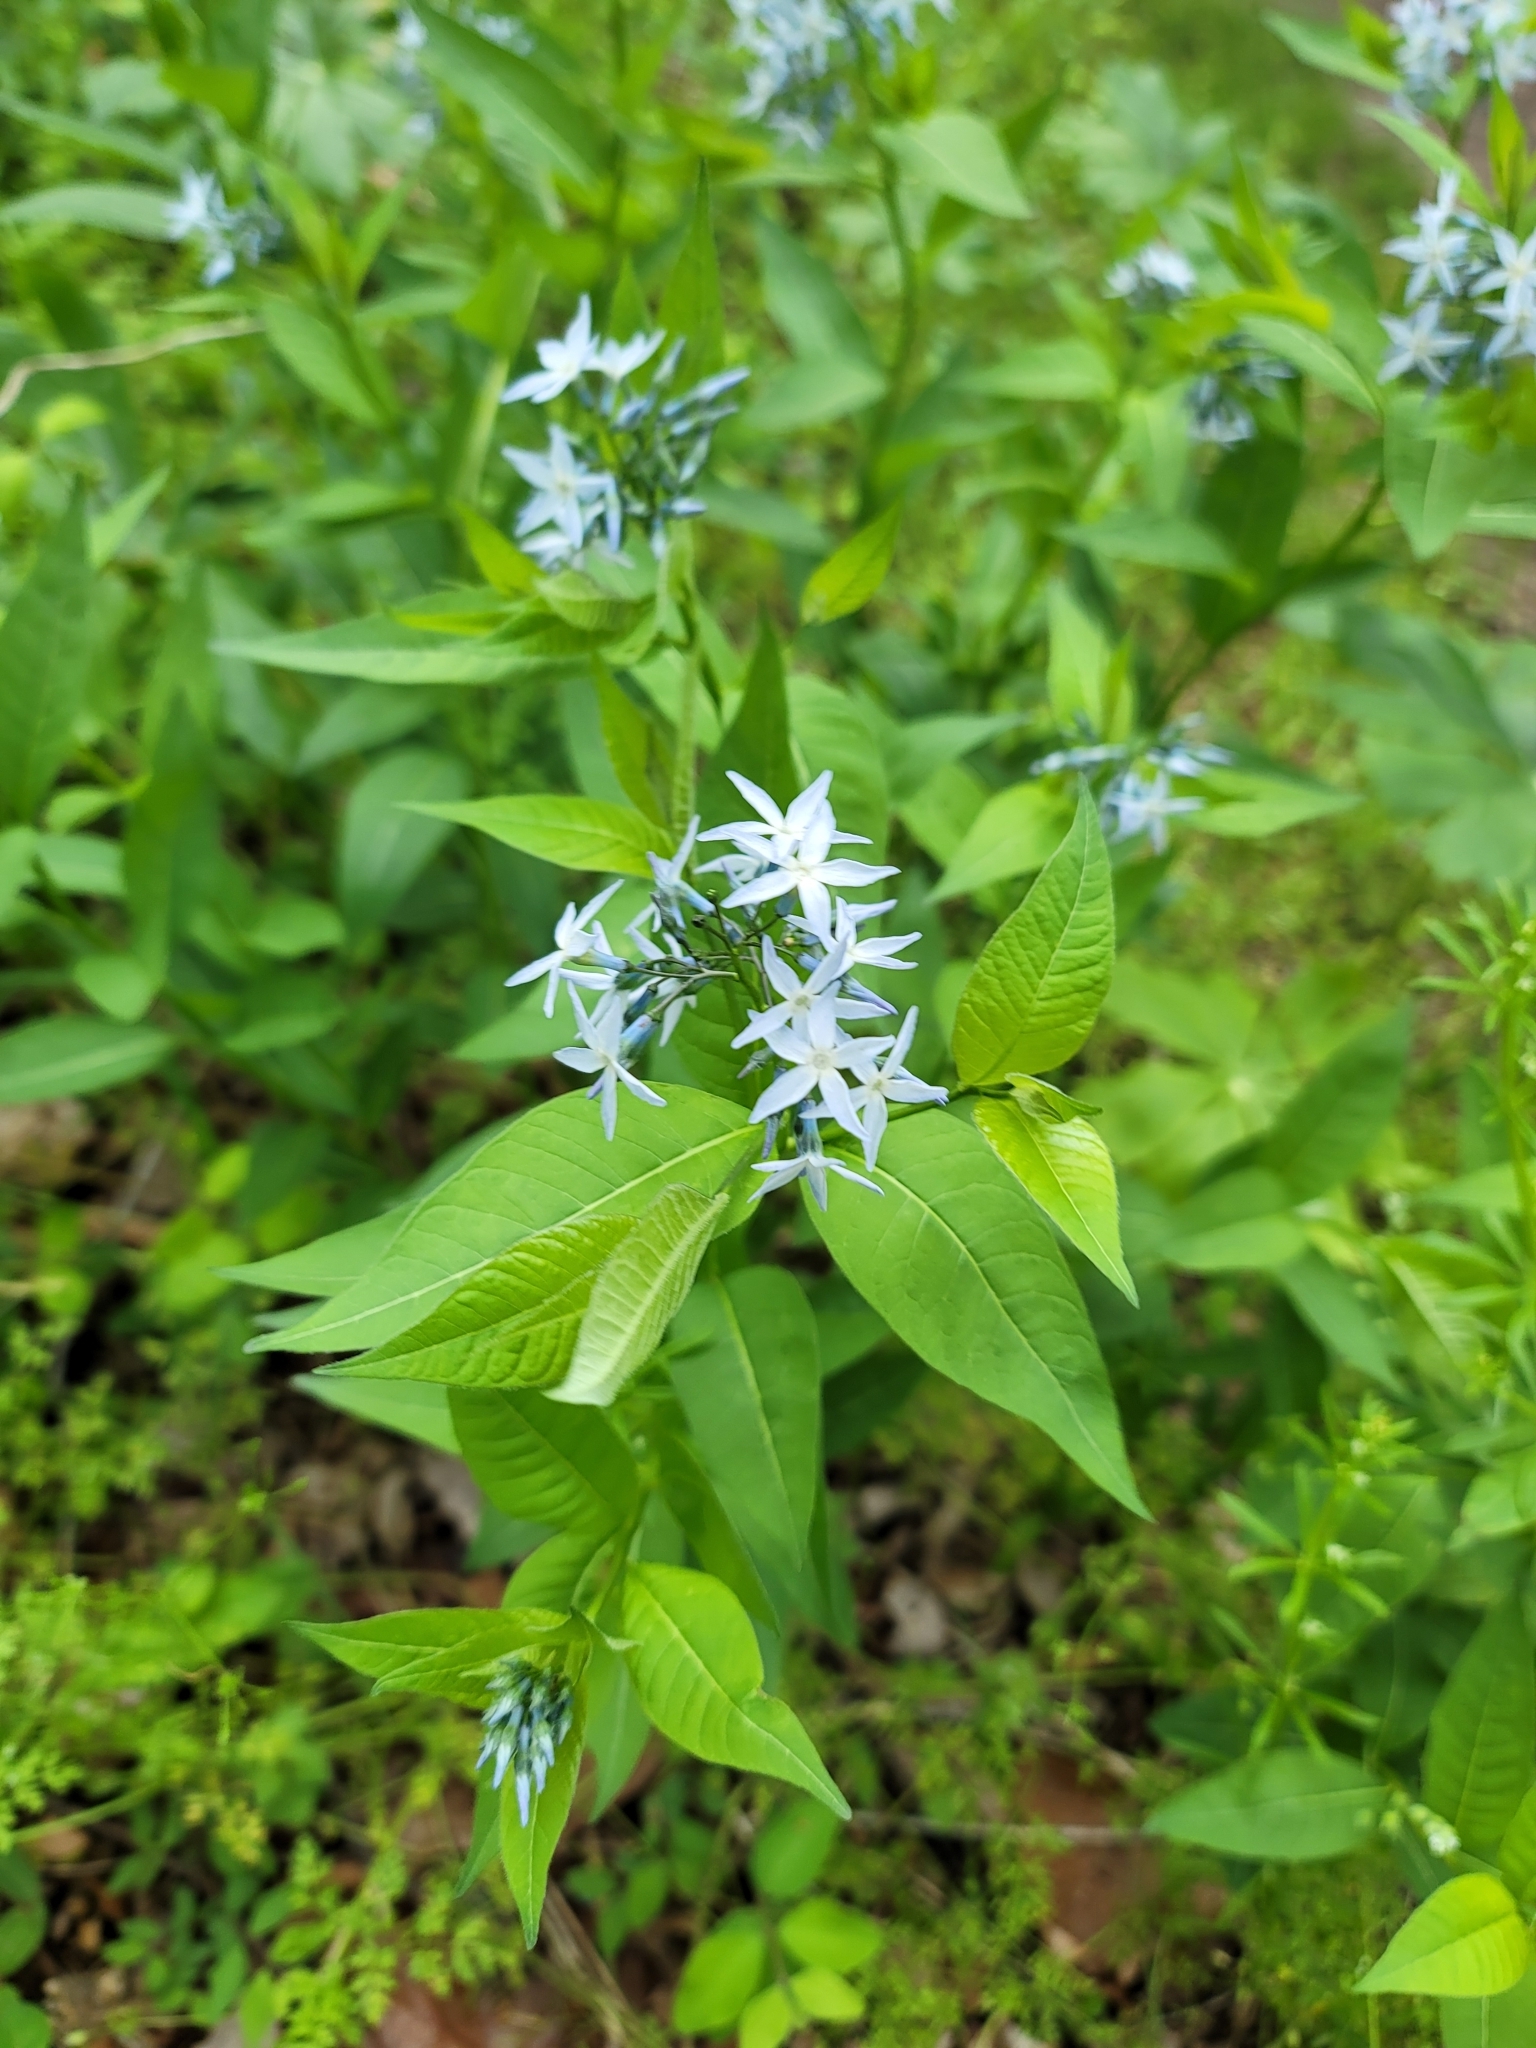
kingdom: Plantae
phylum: Tracheophyta
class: Magnoliopsida
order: Gentianales
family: Apocynaceae
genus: Amsonia
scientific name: Amsonia tabernaemontana
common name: Texas-star
